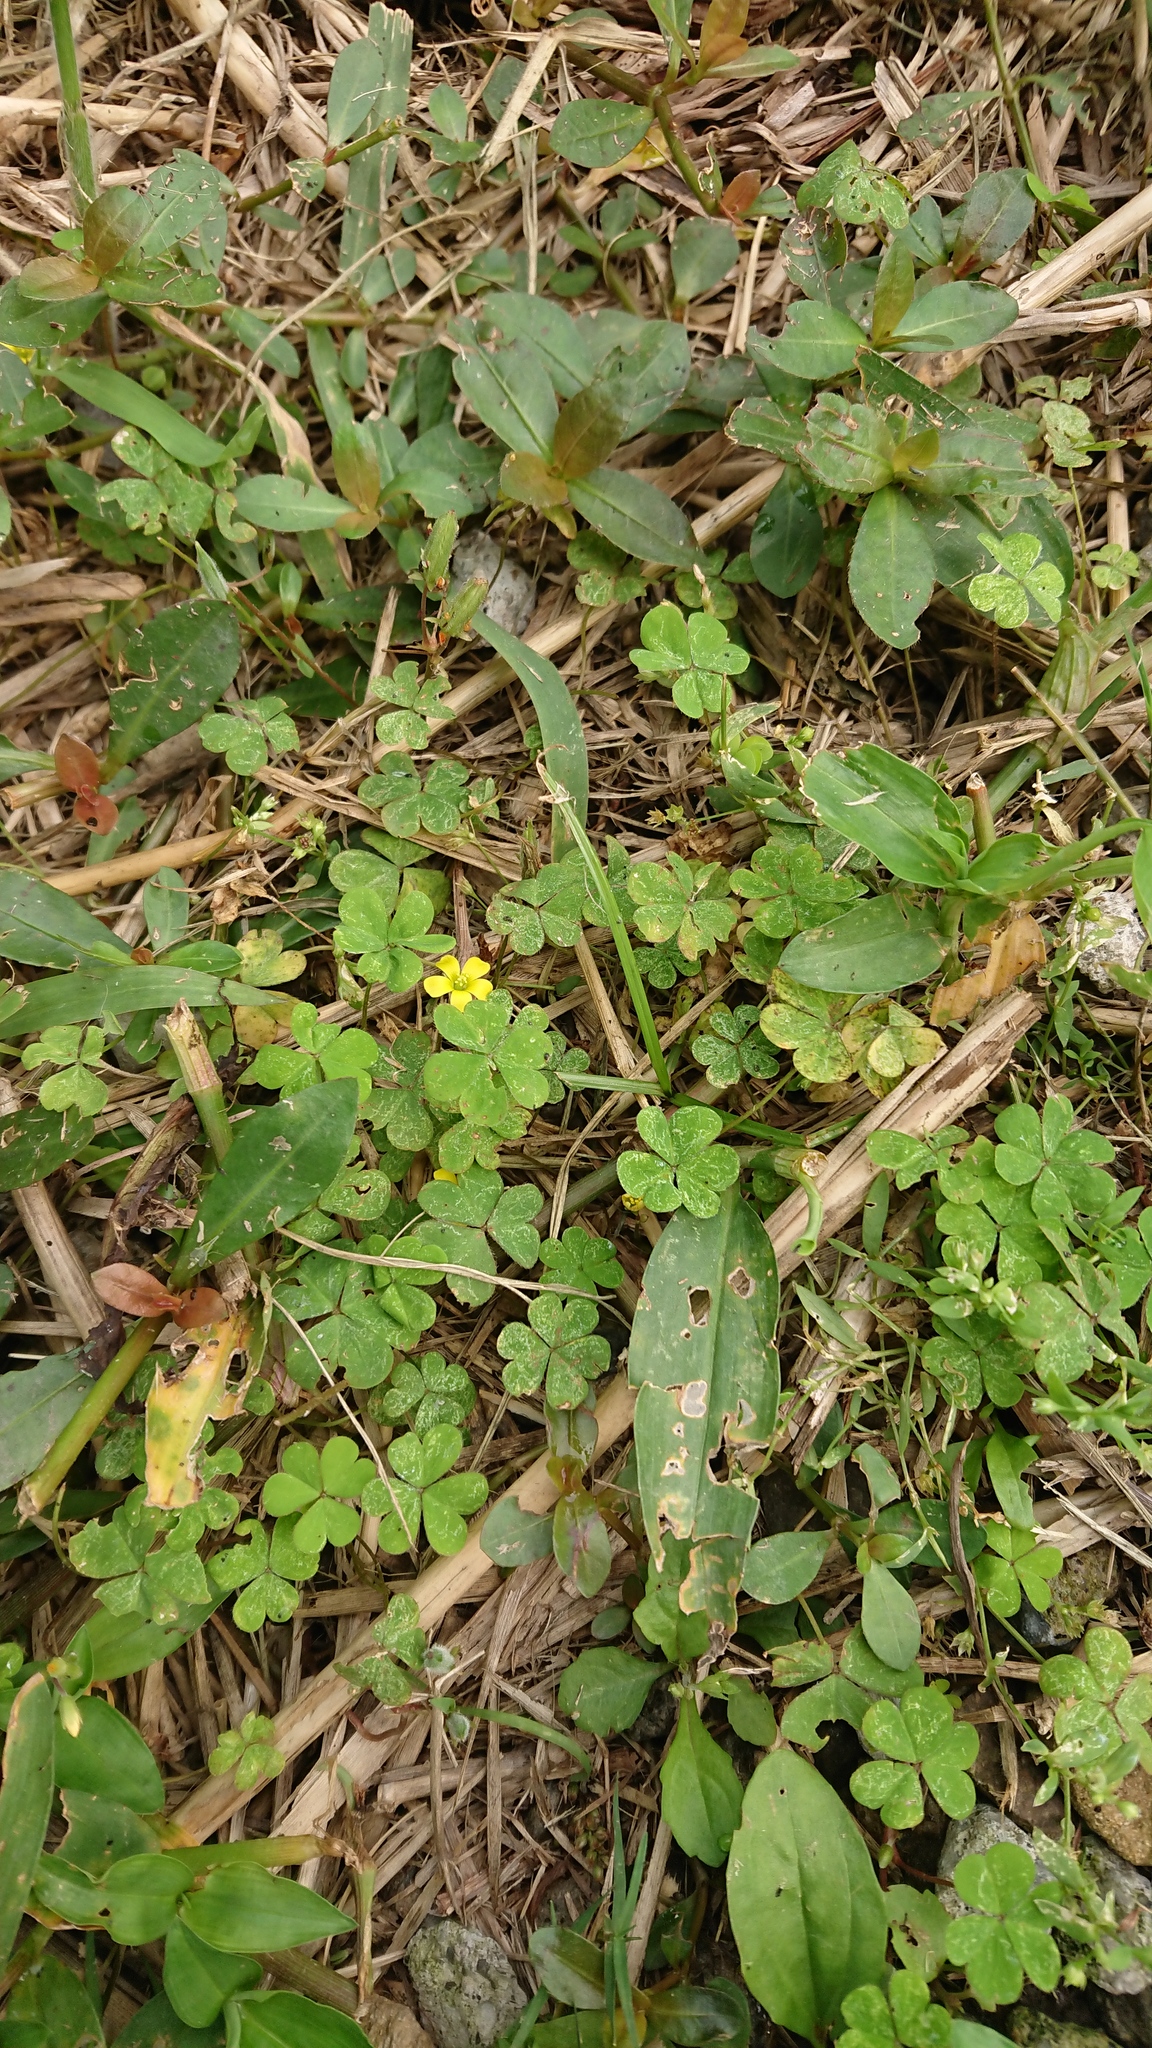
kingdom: Plantae
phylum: Tracheophyta
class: Magnoliopsida
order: Oxalidales
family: Oxalidaceae
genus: Oxalis
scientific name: Oxalis corniculata
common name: Procumbent yellow-sorrel
